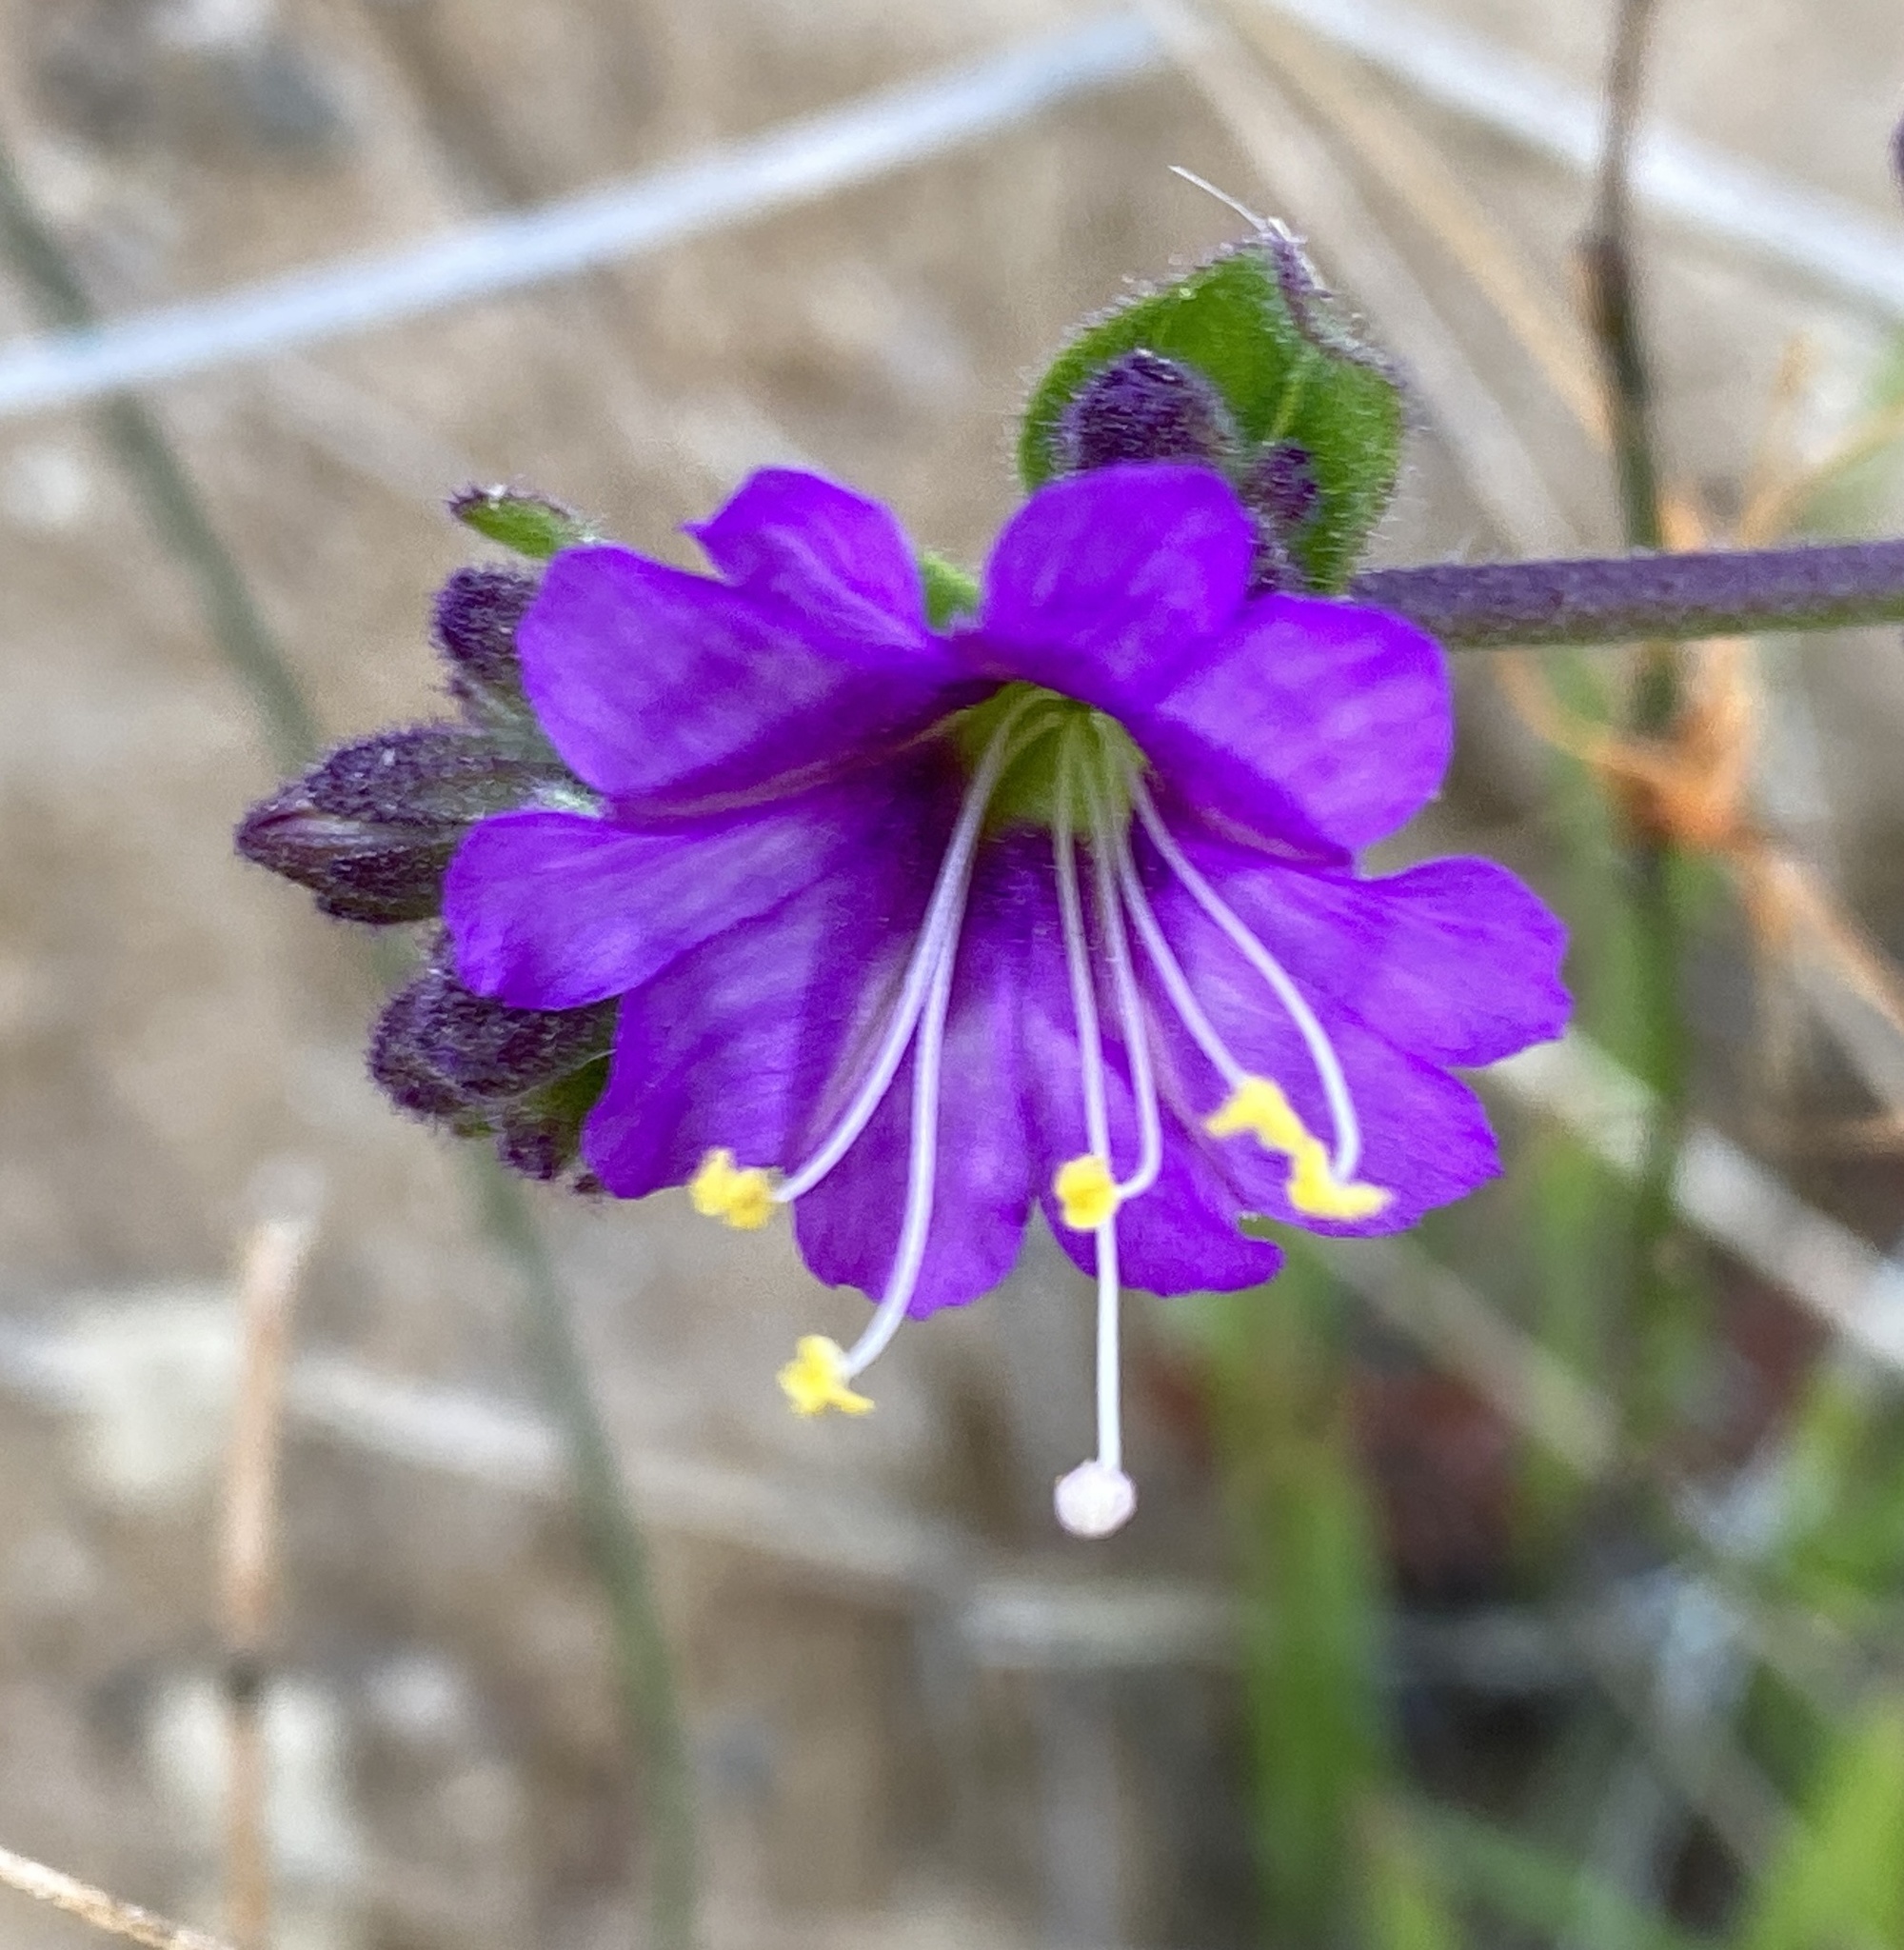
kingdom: Plantae
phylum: Tracheophyta
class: Magnoliopsida
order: Caryophyllales
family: Nyctaginaceae
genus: Mirabilis
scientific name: Mirabilis laevis
